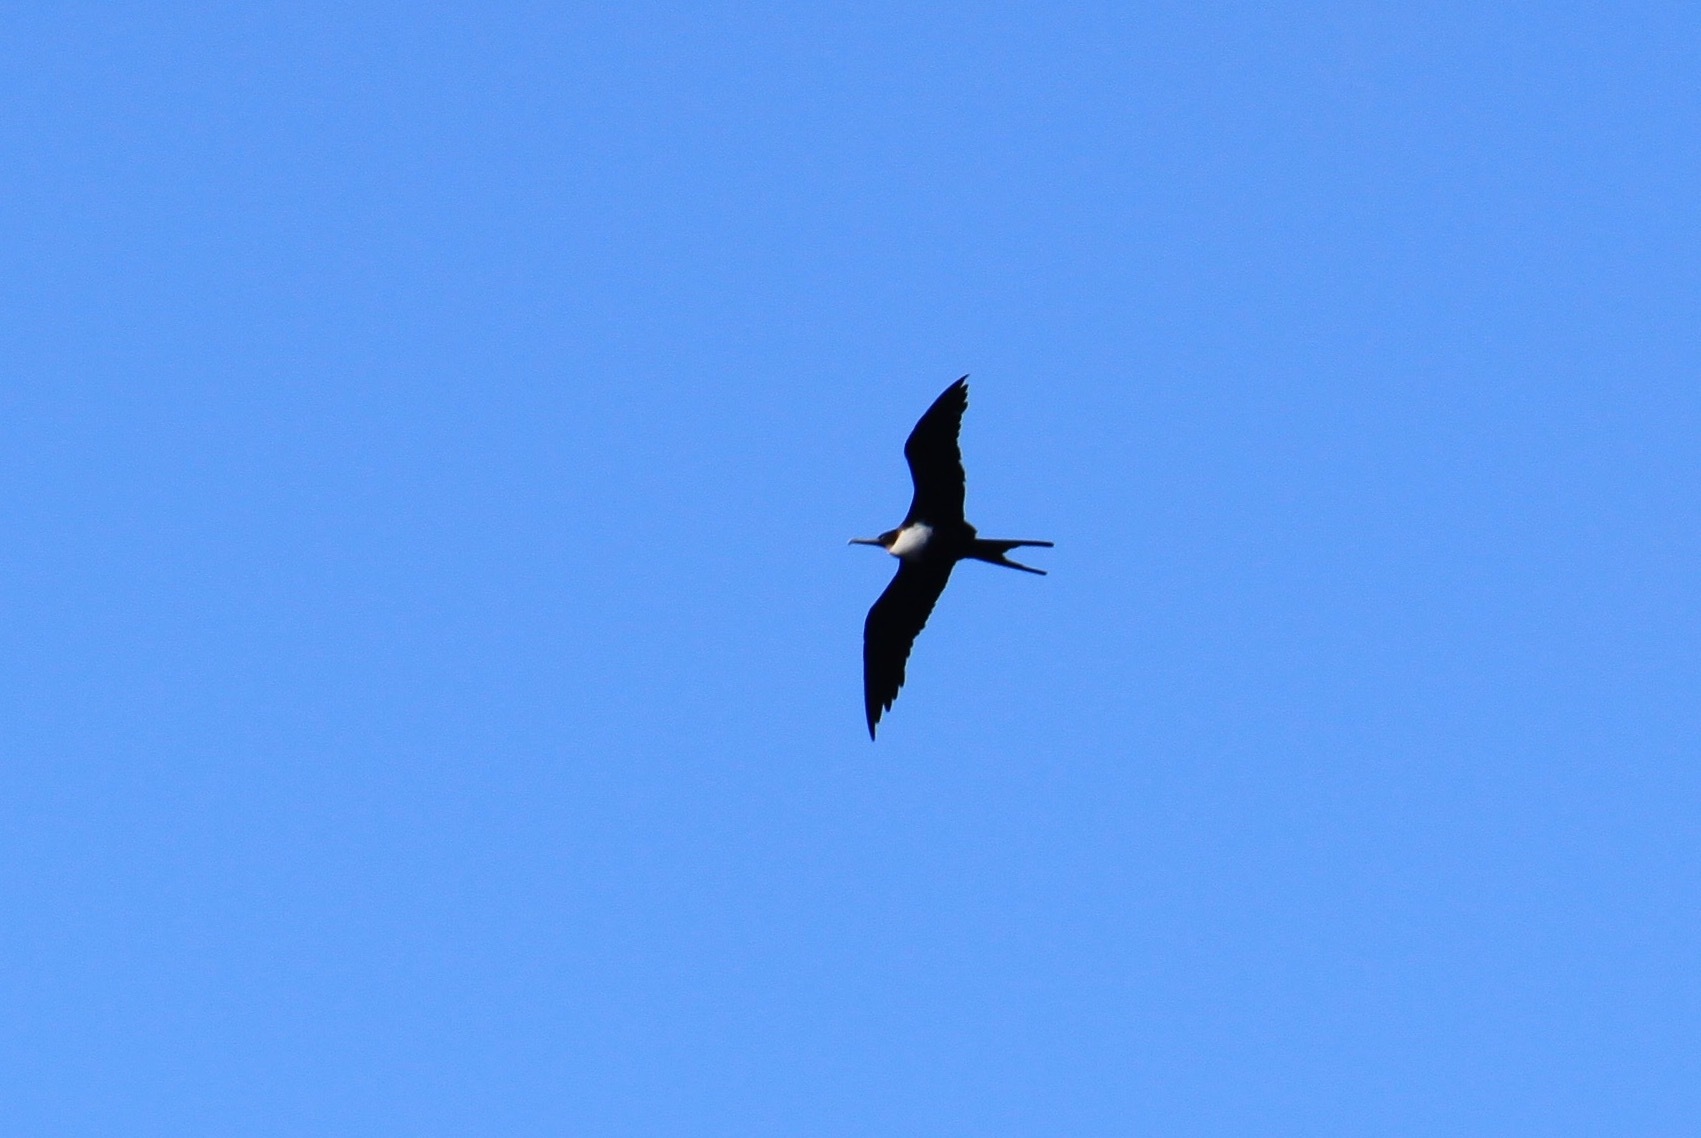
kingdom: Animalia
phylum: Chordata
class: Aves
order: Suliformes
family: Fregatidae
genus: Fregata
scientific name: Fregata minor
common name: Great frigatebird
